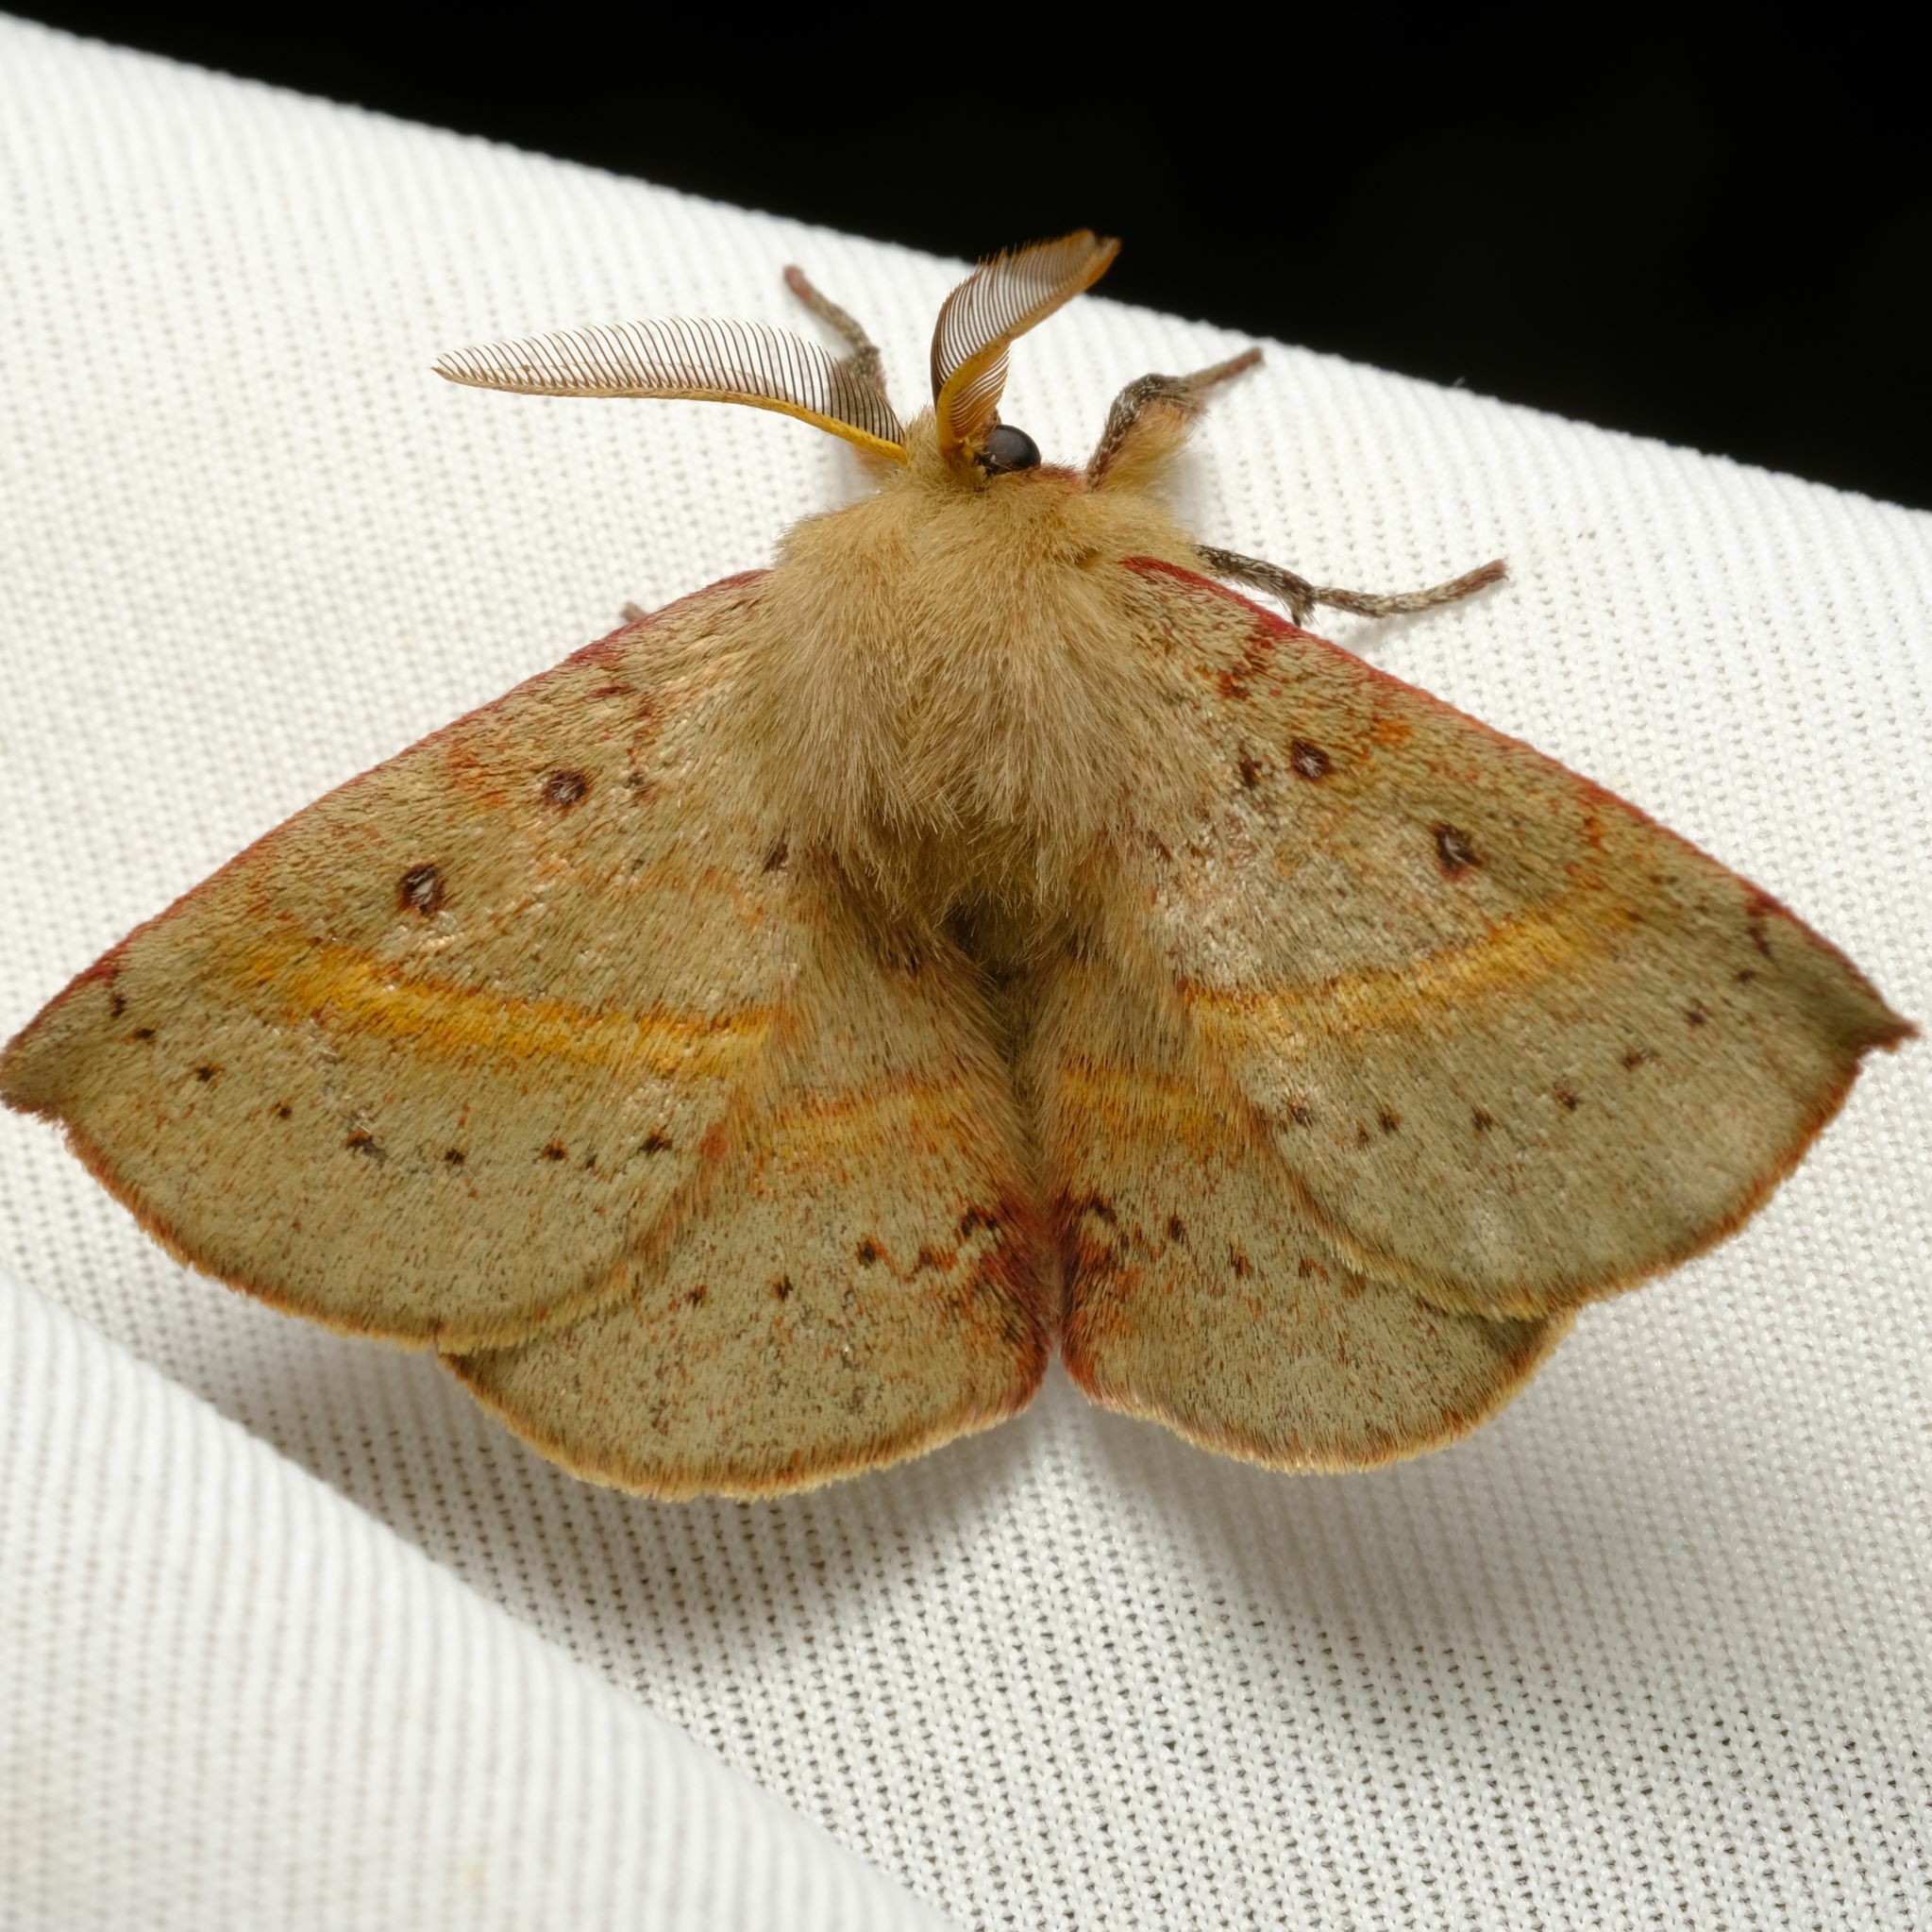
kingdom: Animalia
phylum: Arthropoda
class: Insecta
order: Lepidoptera
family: Anthelidae
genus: Anthela
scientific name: Anthela acuta
